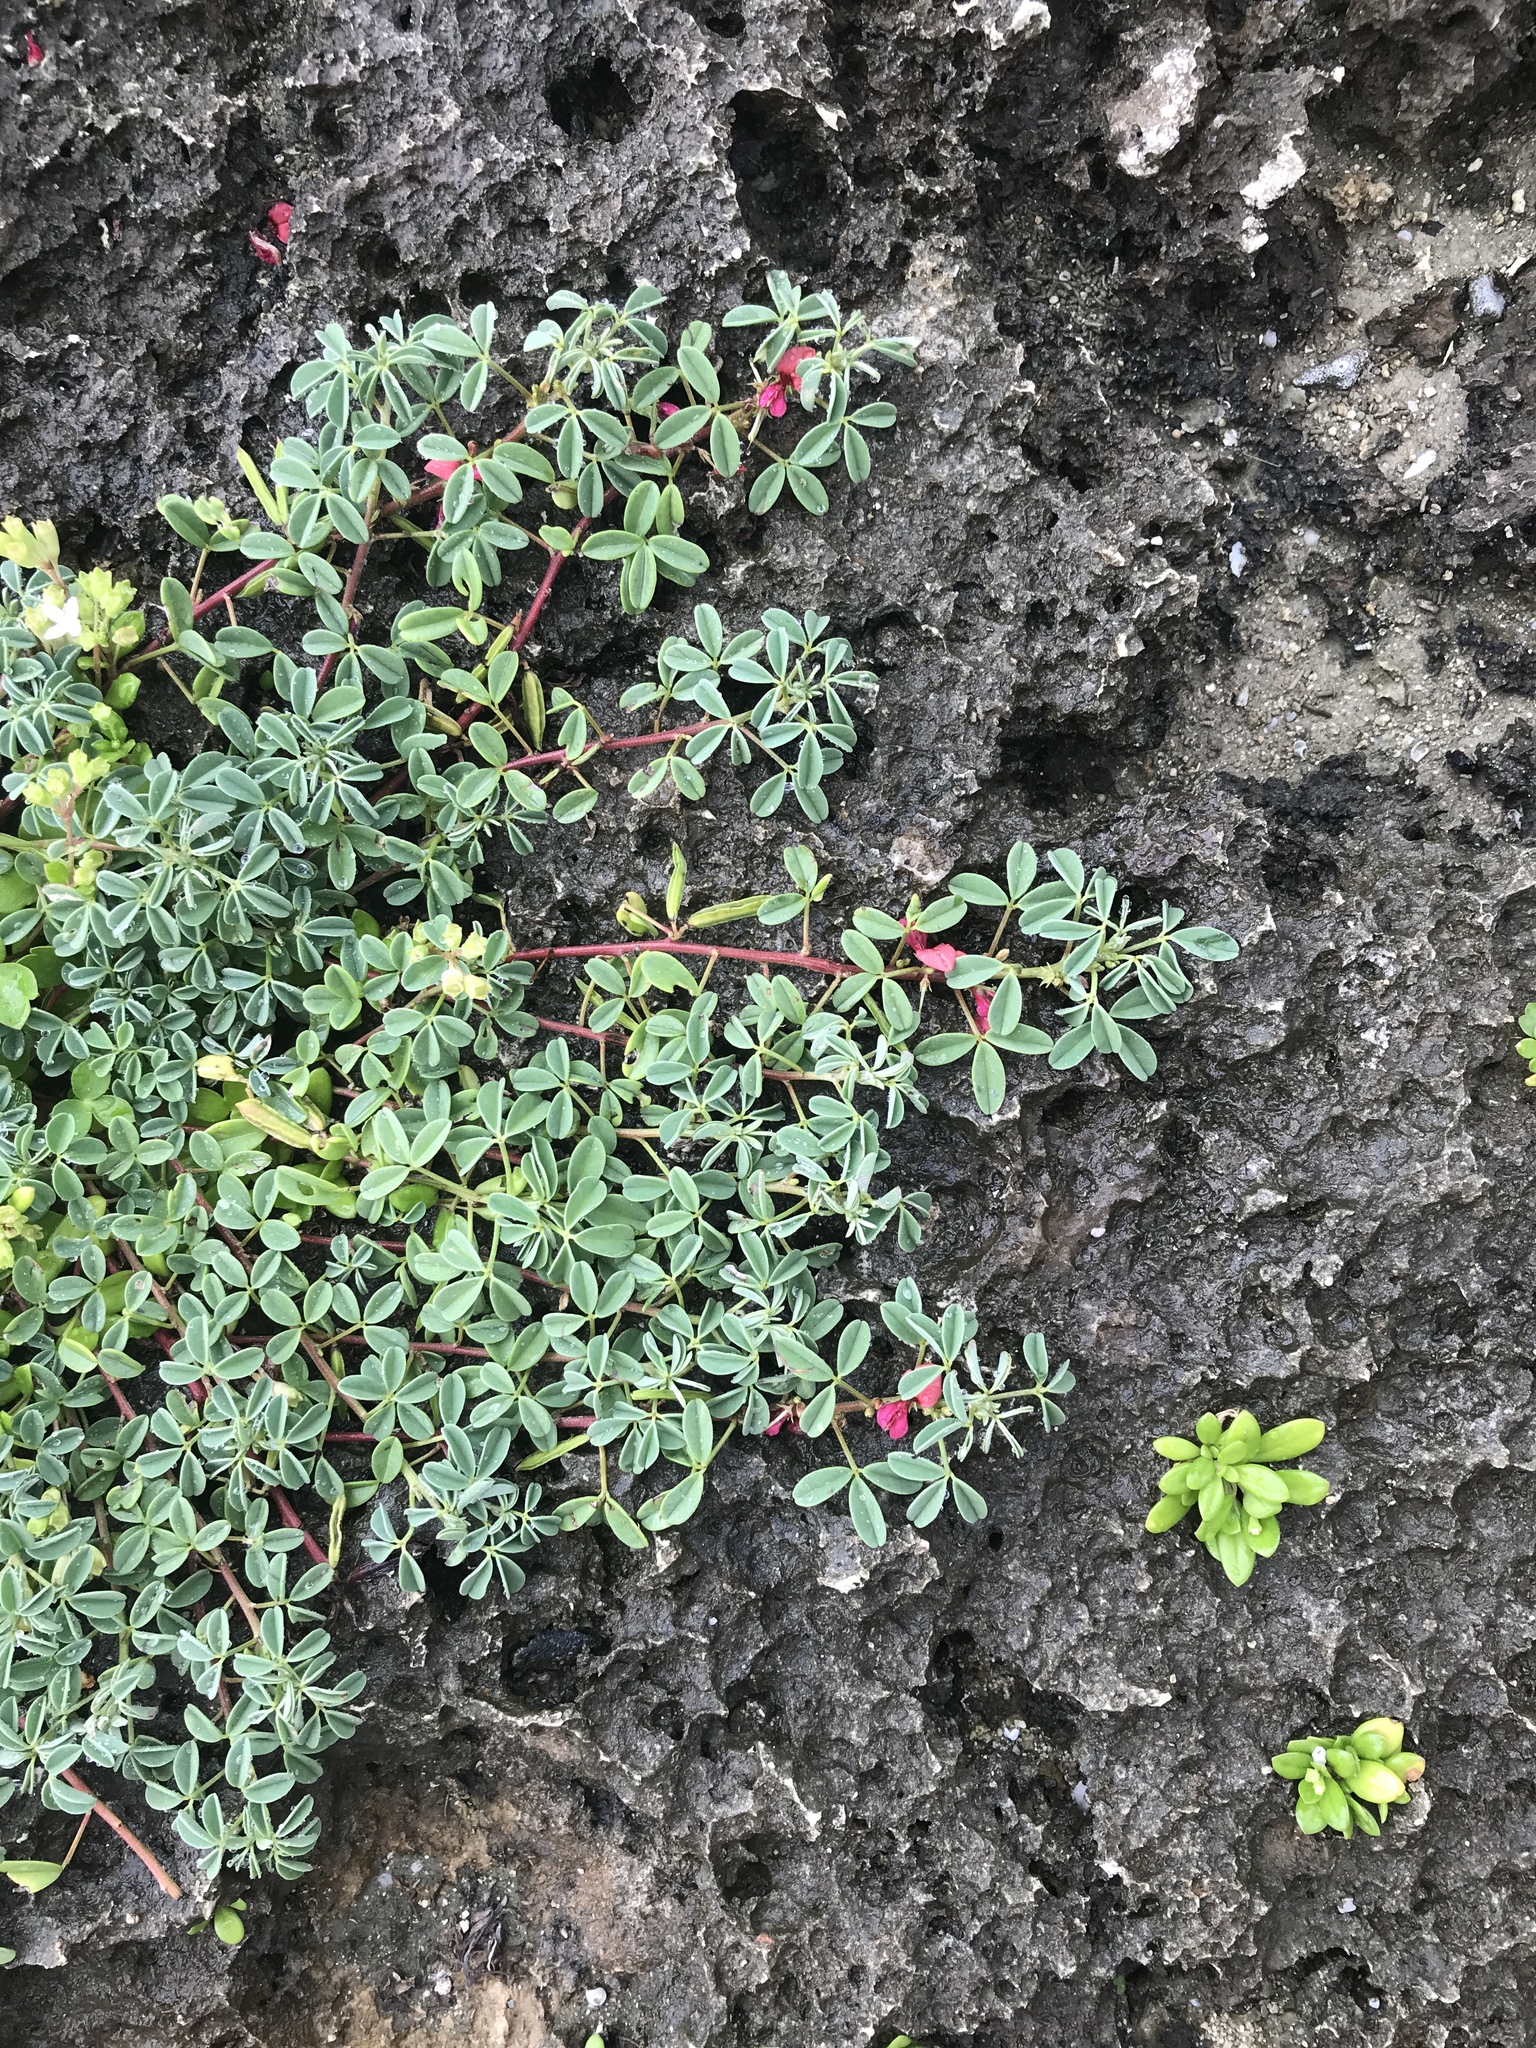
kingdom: Plantae
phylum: Tracheophyta
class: Magnoliopsida
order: Fabales
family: Fabaceae
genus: Indigofera
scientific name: Indigofera trifoliata
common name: Threeleaf indigo
